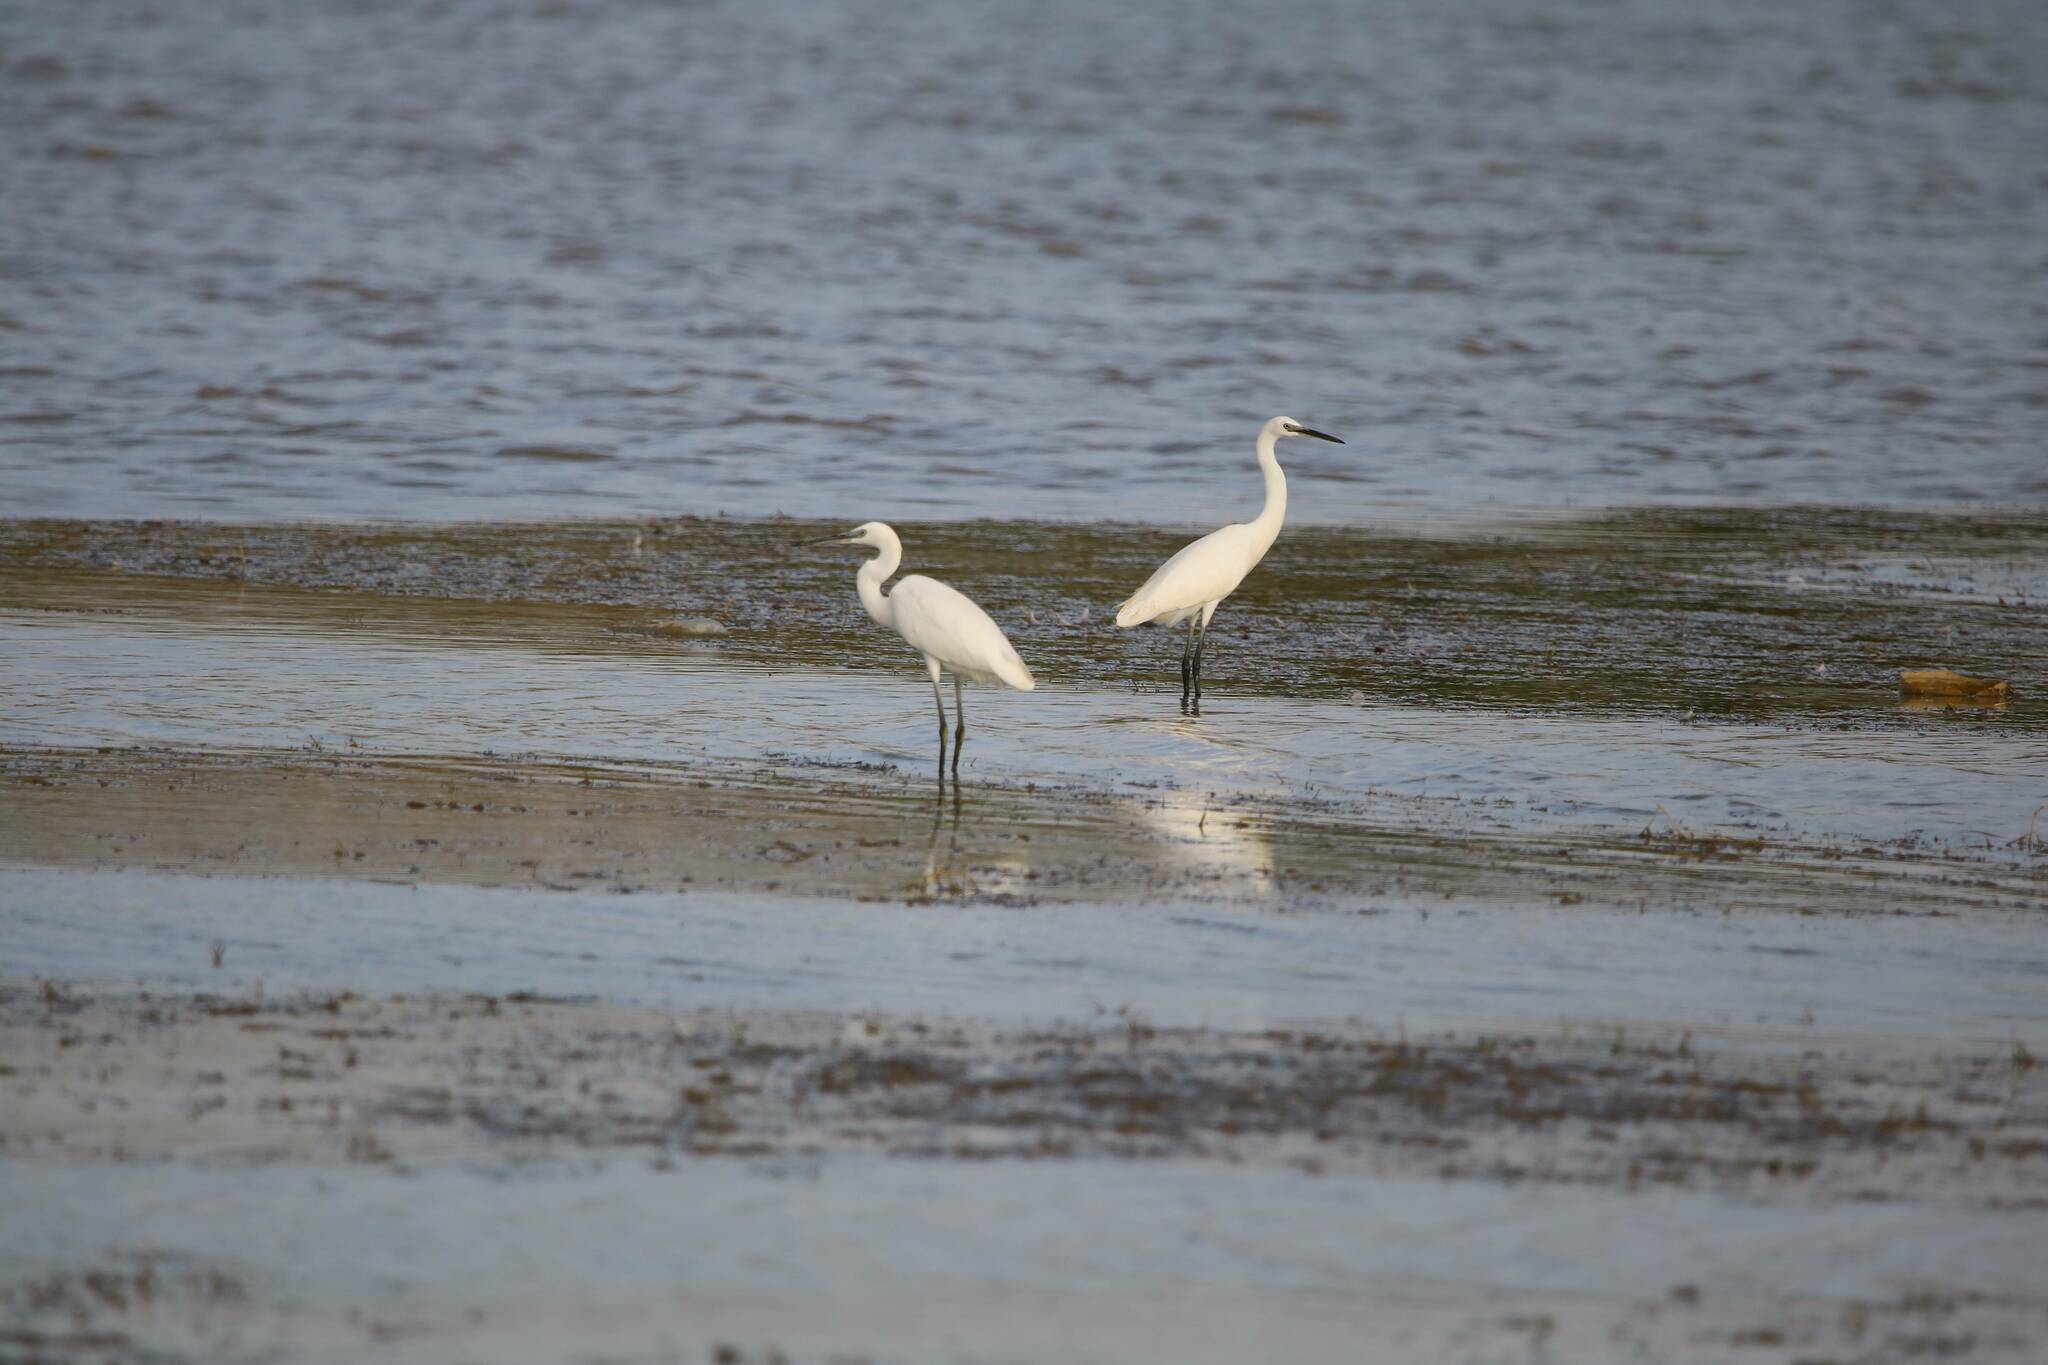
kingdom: Animalia
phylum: Chordata
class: Aves
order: Pelecaniformes
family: Ardeidae
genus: Egretta
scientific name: Egretta garzetta
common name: Little egret
